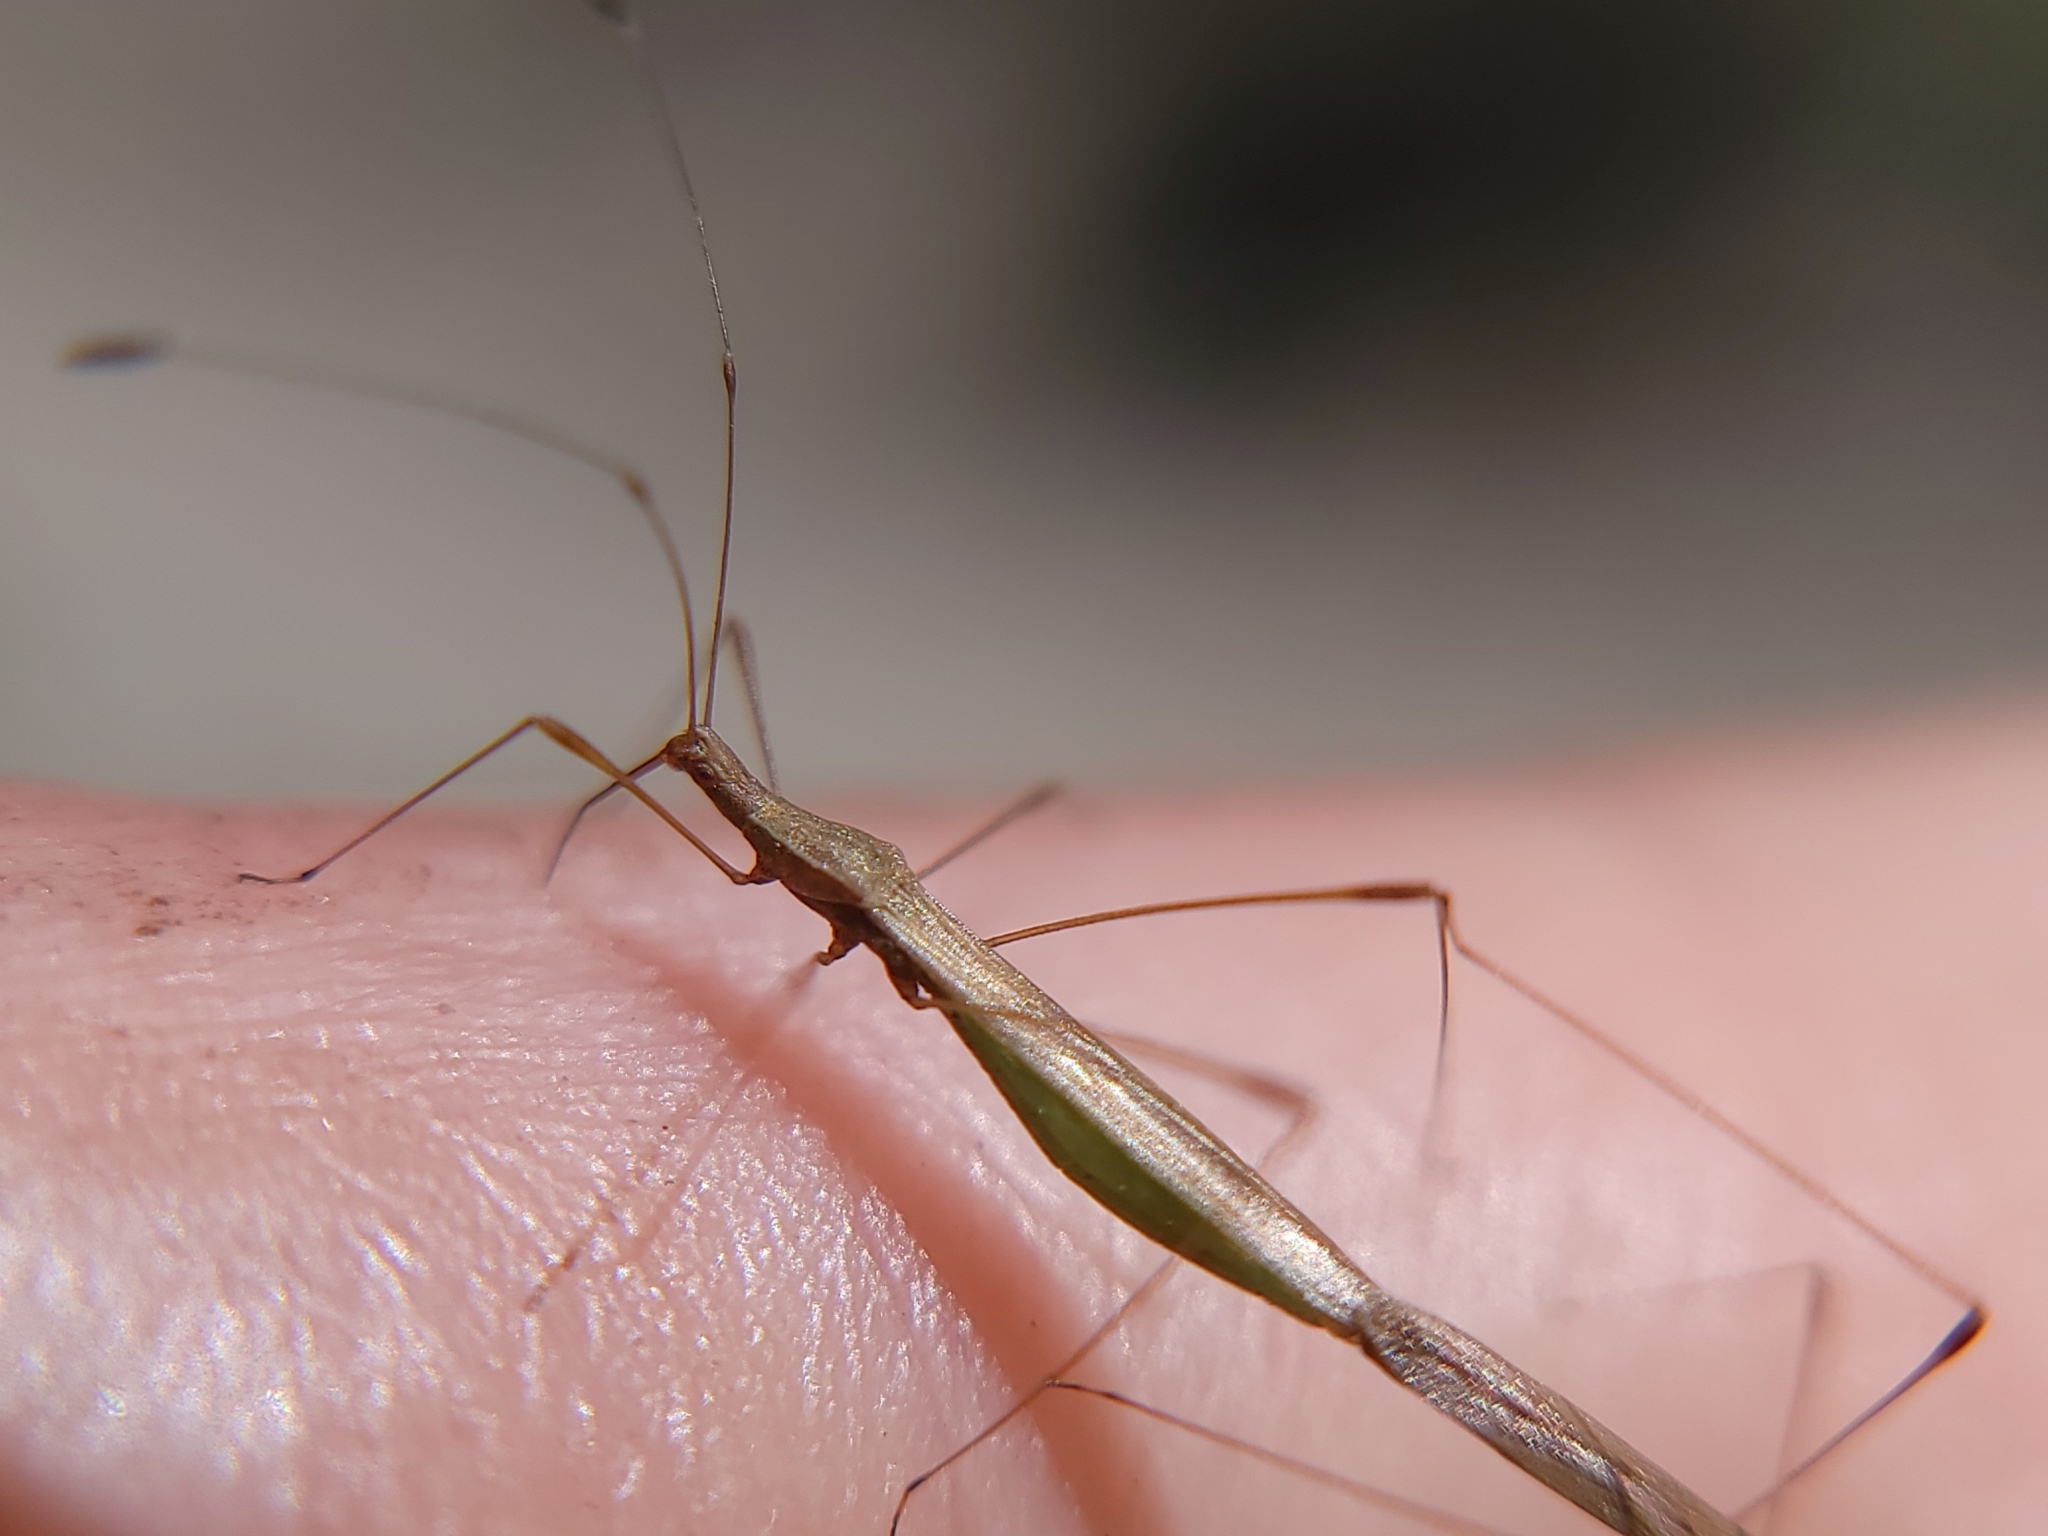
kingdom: Animalia
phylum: Arthropoda
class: Insecta
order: Hemiptera
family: Berytidae
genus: Neoneides
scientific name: Neoneides muticus
